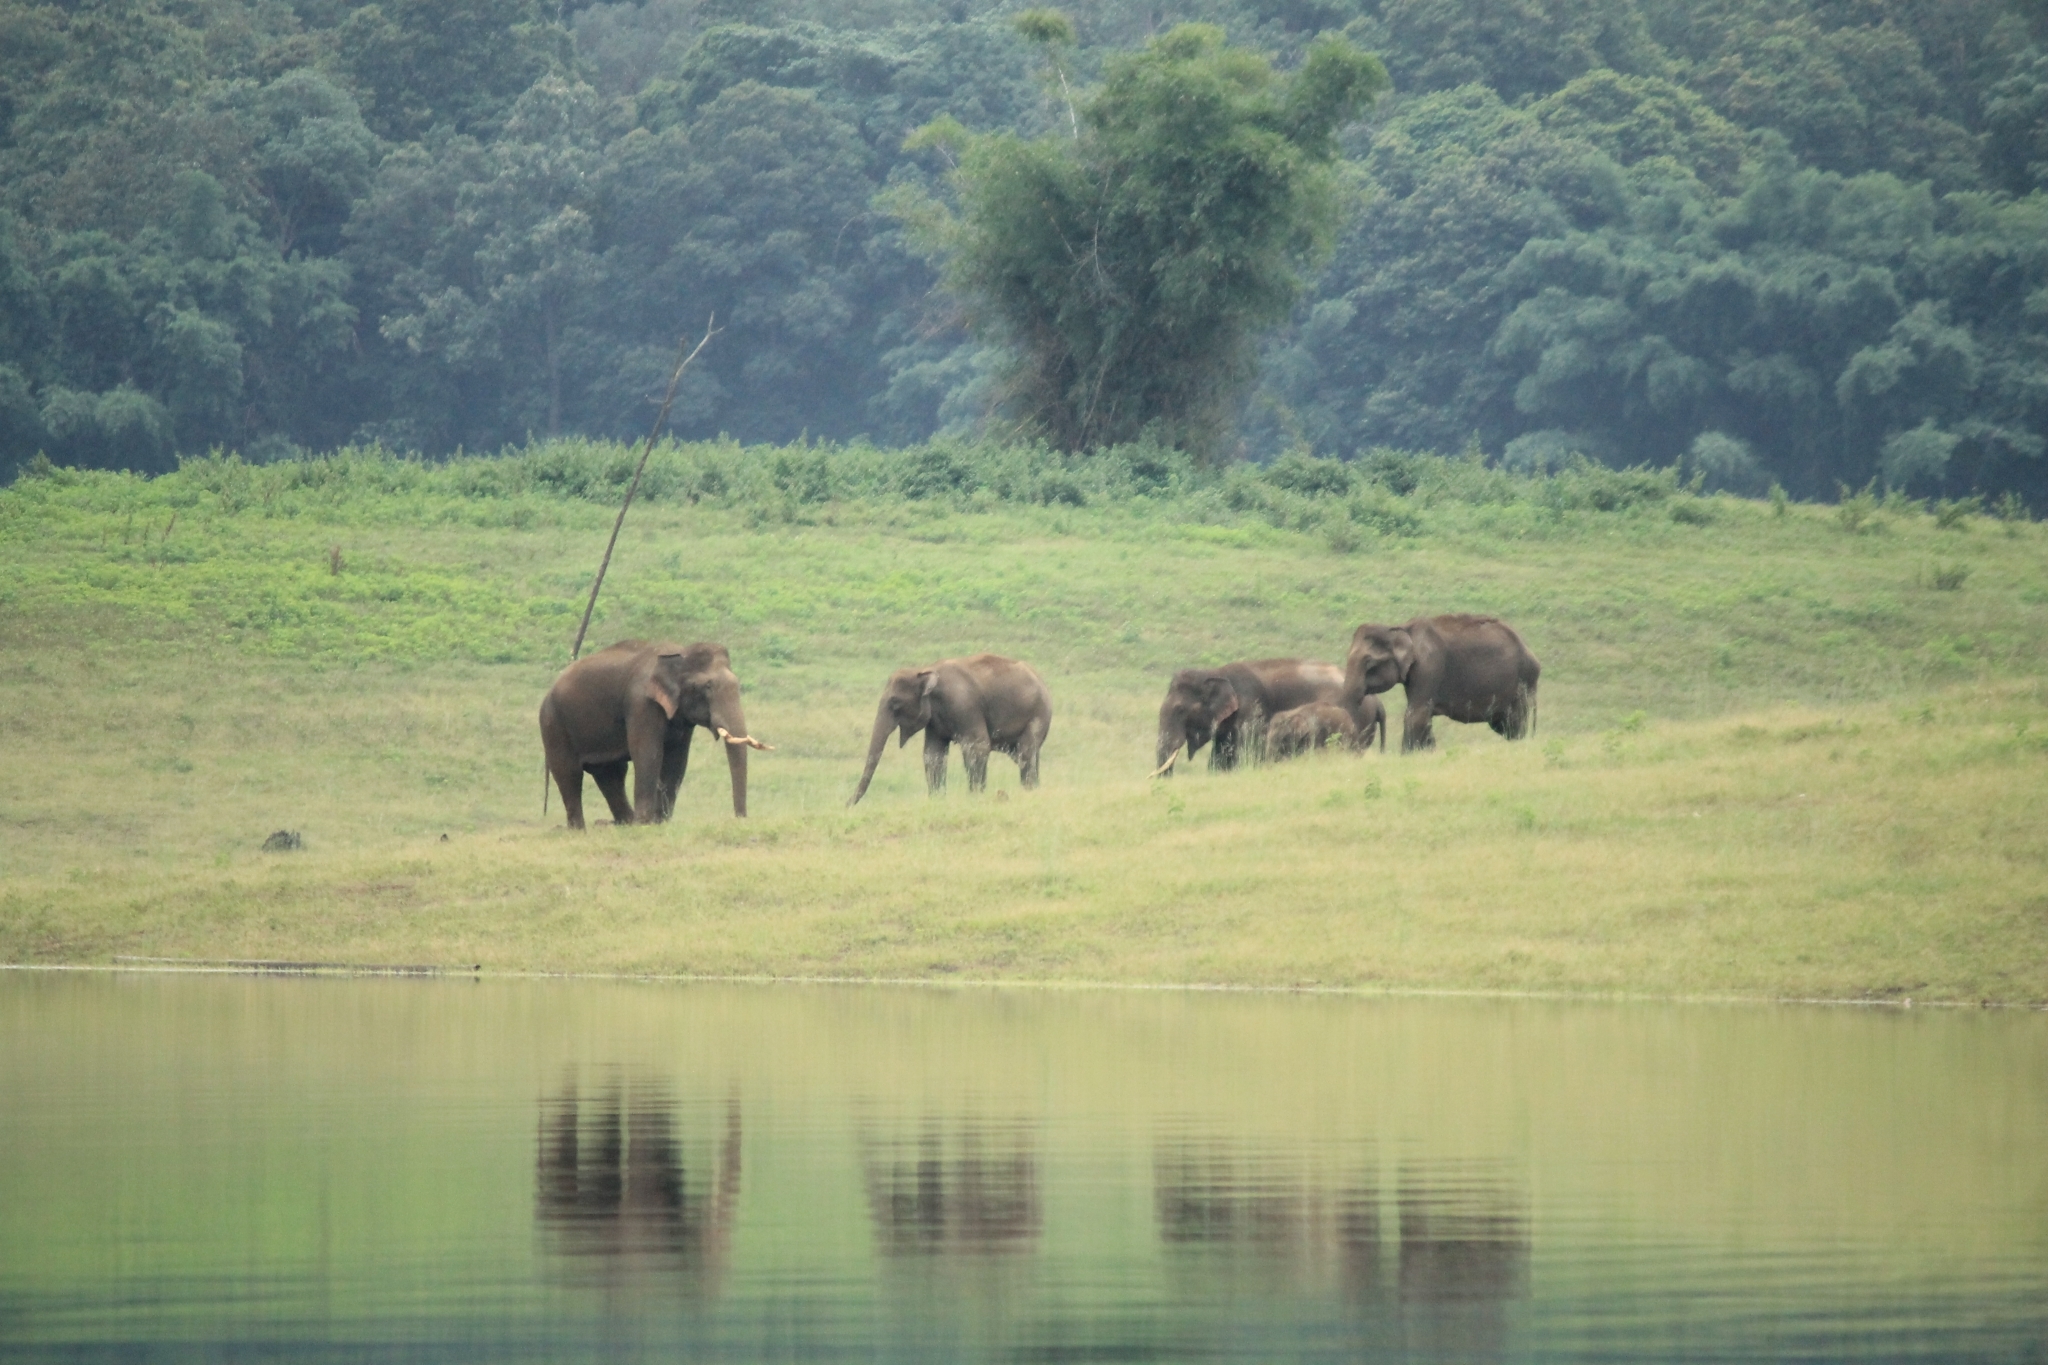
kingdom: Animalia
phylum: Chordata
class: Mammalia
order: Proboscidea
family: Elephantidae
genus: Elephas
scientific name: Elephas maximus
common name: Asian elephant
